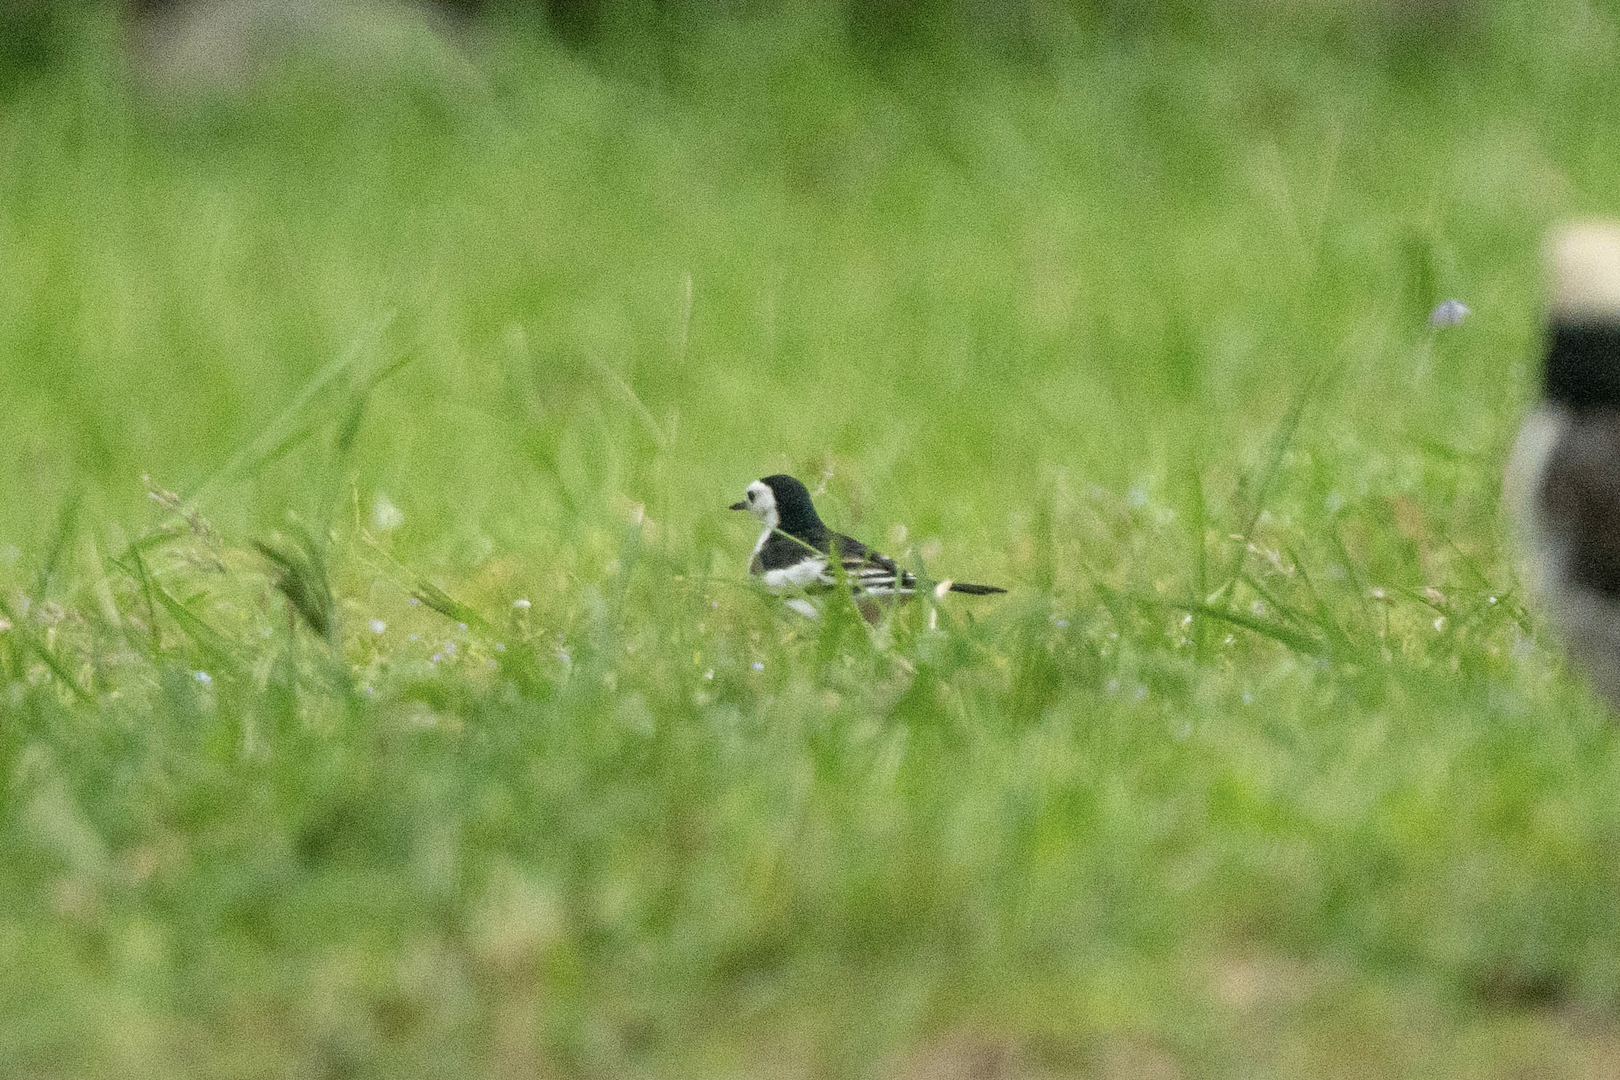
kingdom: Animalia
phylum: Chordata
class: Aves
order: Passeriformes
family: Motacillidae
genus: Motacilla
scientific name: Motacilla alba
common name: White wagtail
